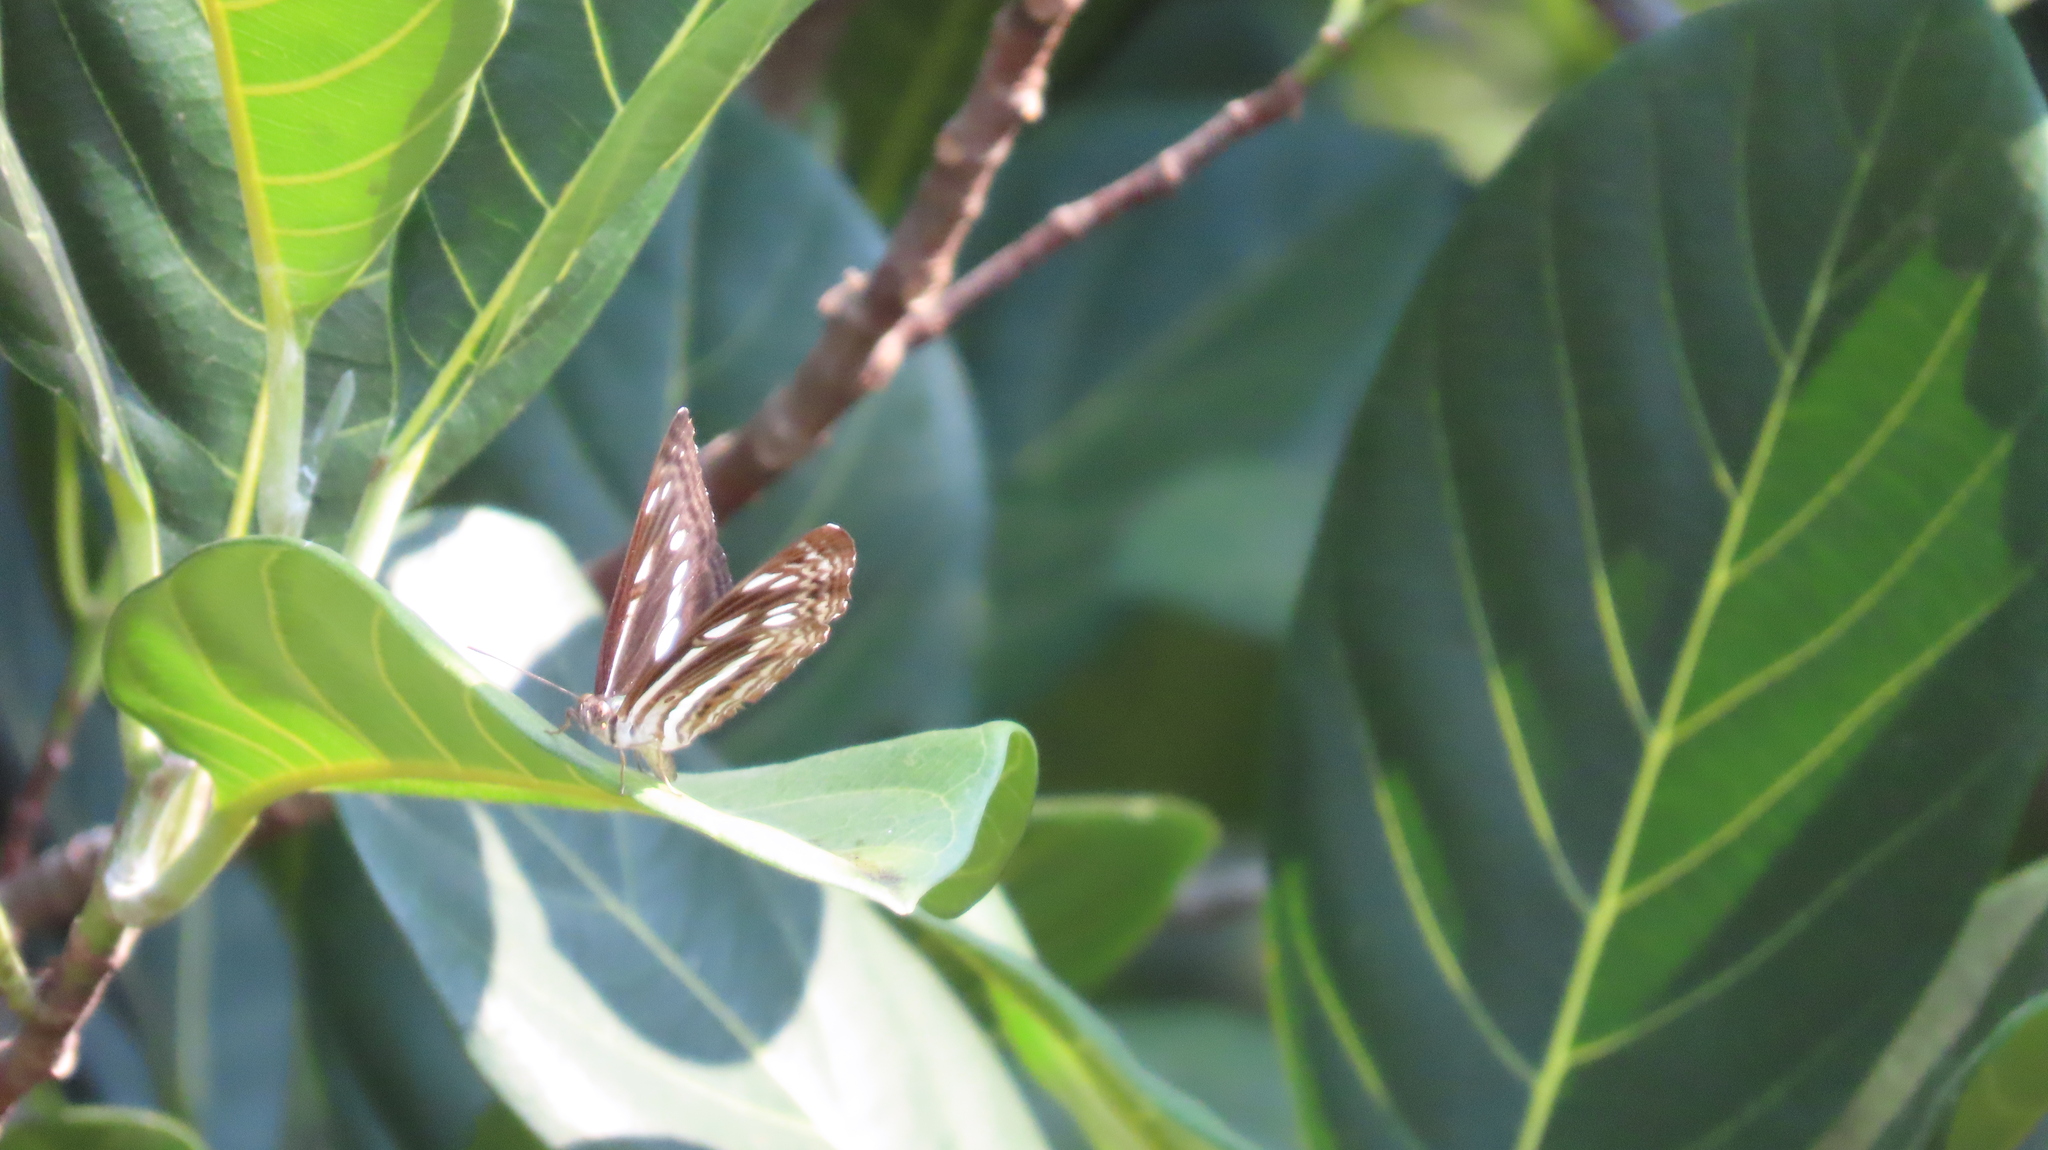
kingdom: Animalia
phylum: Arthropoda
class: Insecta
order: Lepidoptera
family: Nymphalidae
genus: Neptis
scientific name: Neptis jumbah
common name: Chestnut-streaked sailer
